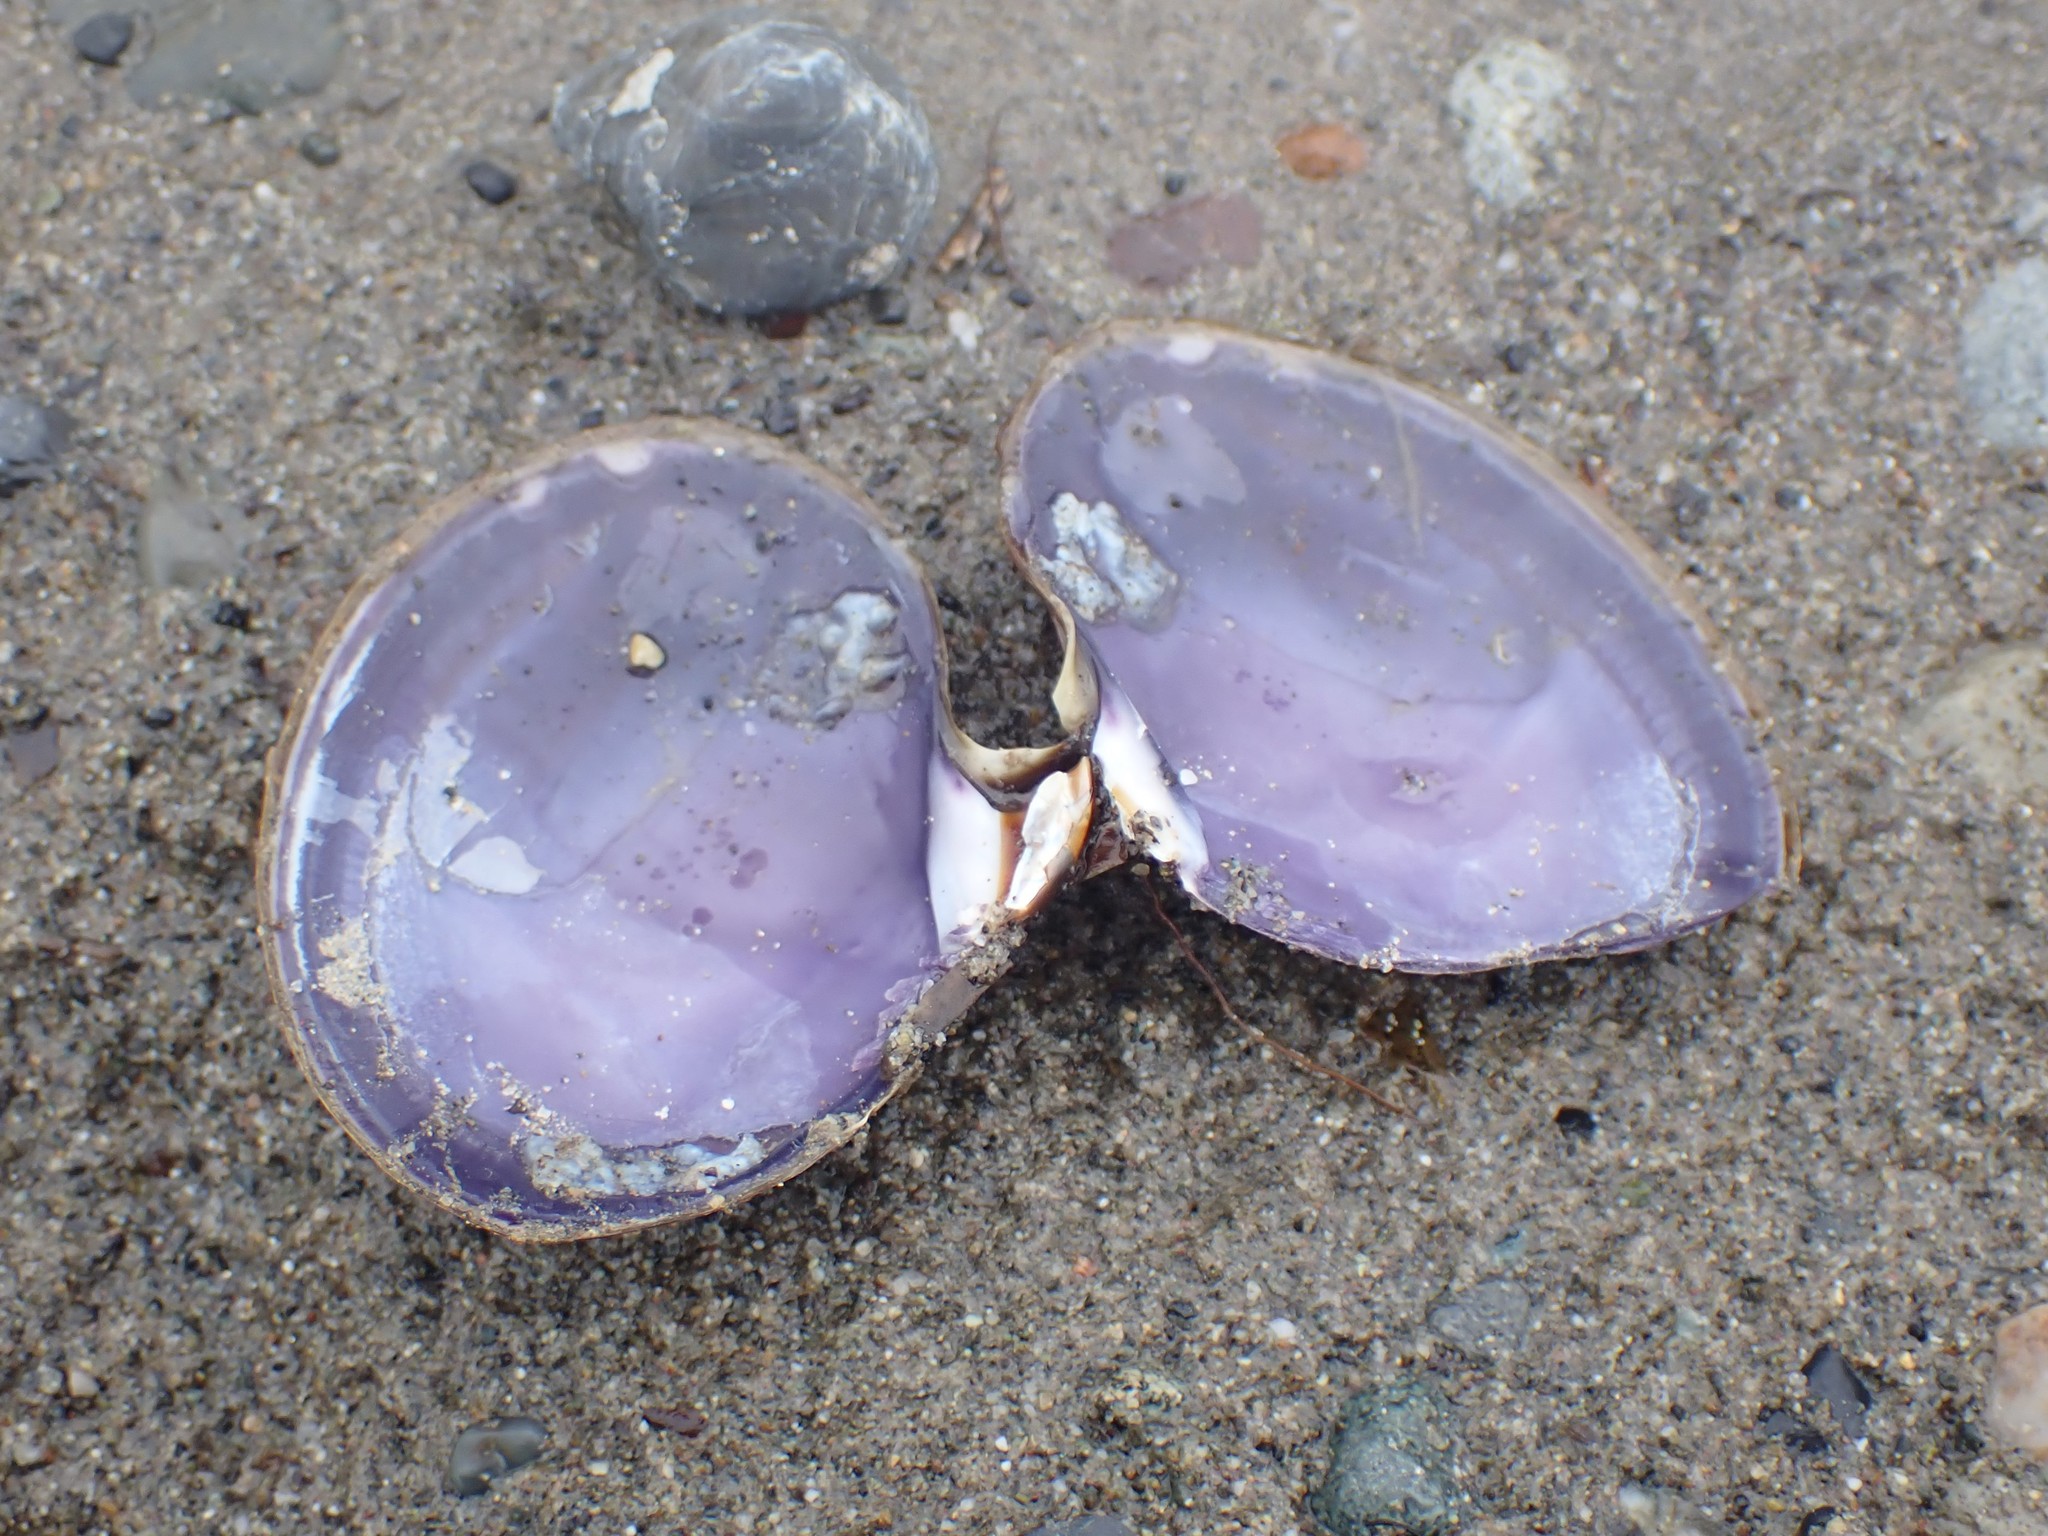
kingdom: Animalia
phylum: Mollusca
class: Bivalvia
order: Cardiida
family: Psammobiidae
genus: Nuttallia
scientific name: Nuttallia obscurata
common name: Purple mahogany-clam
